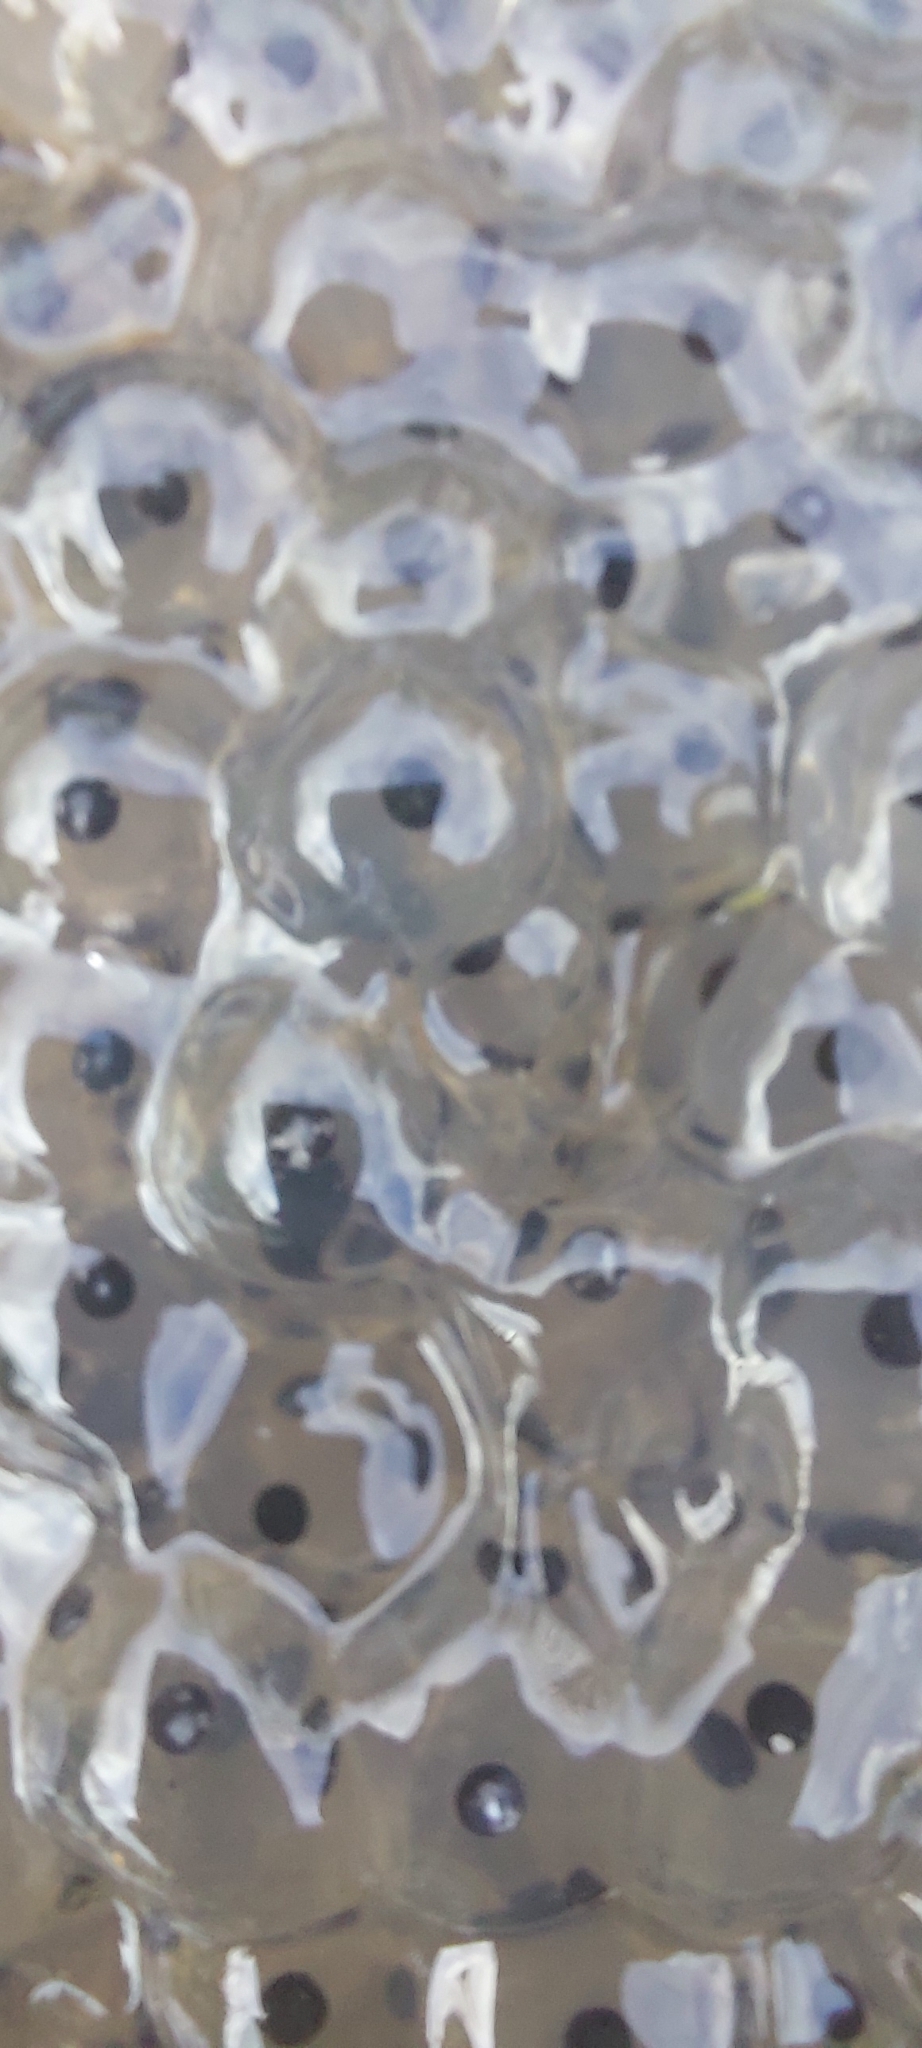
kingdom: Animalia
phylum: Chordata
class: Amphibia
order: Anura
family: Ranidae
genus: Rana
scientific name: Rana temporaria
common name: Common frog
